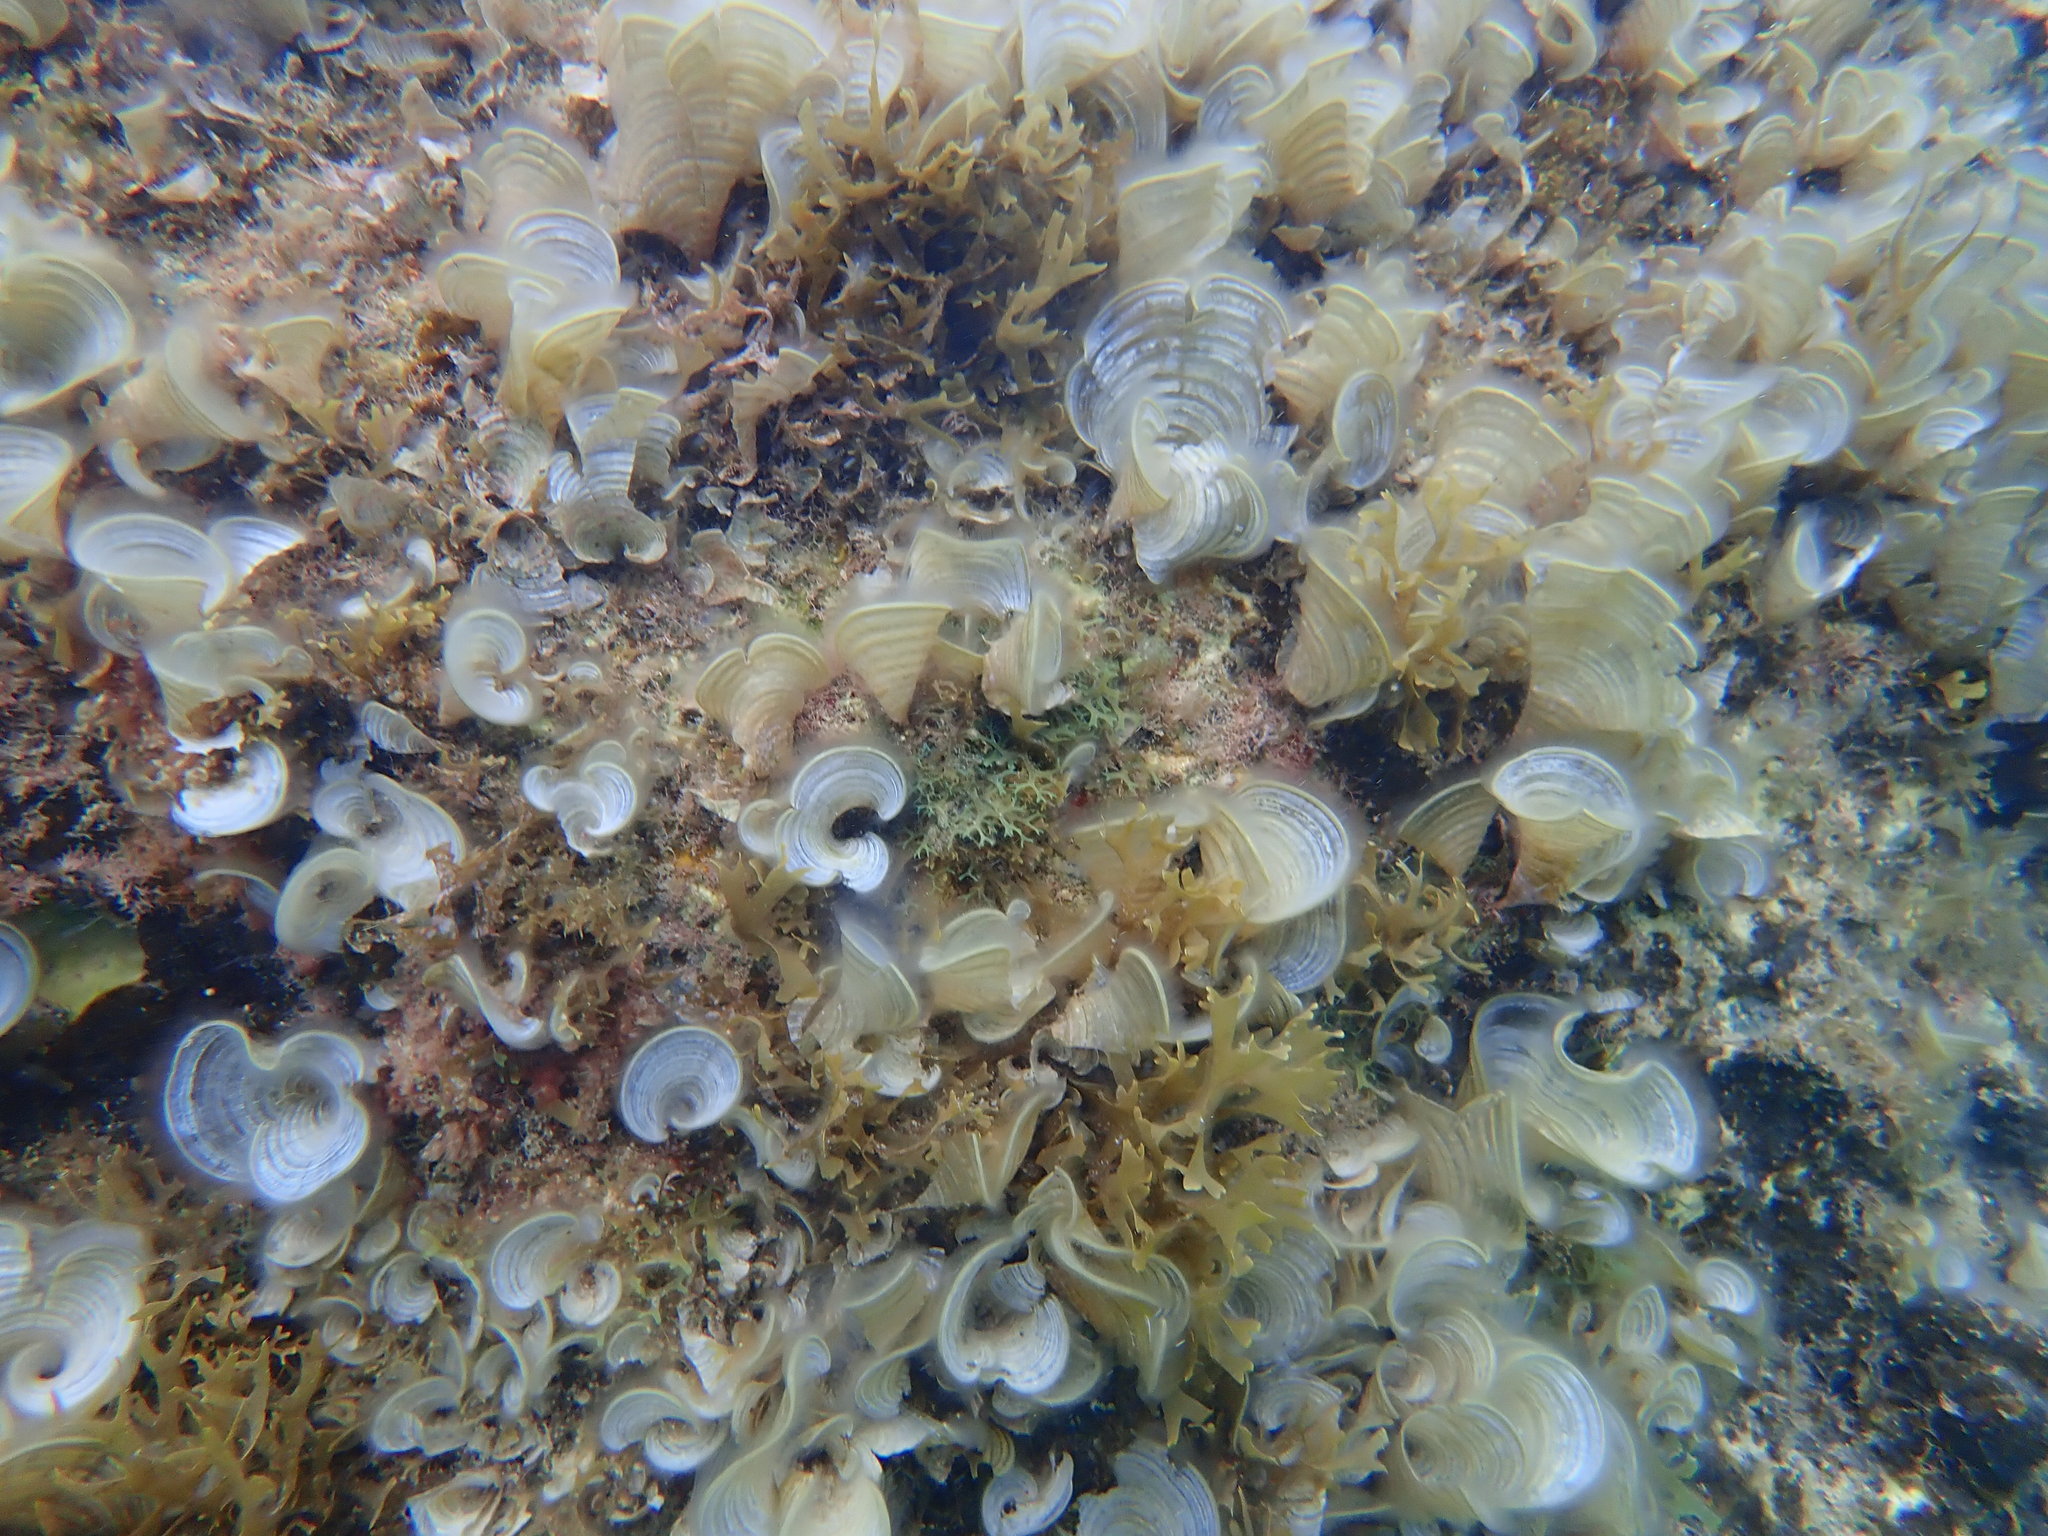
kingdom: Chromista
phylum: Ochrophyta
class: Phaeophyceae
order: Dictyotales
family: Dictyotaceae
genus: Padina
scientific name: Padina sanctae-crucis
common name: White scroll algae
